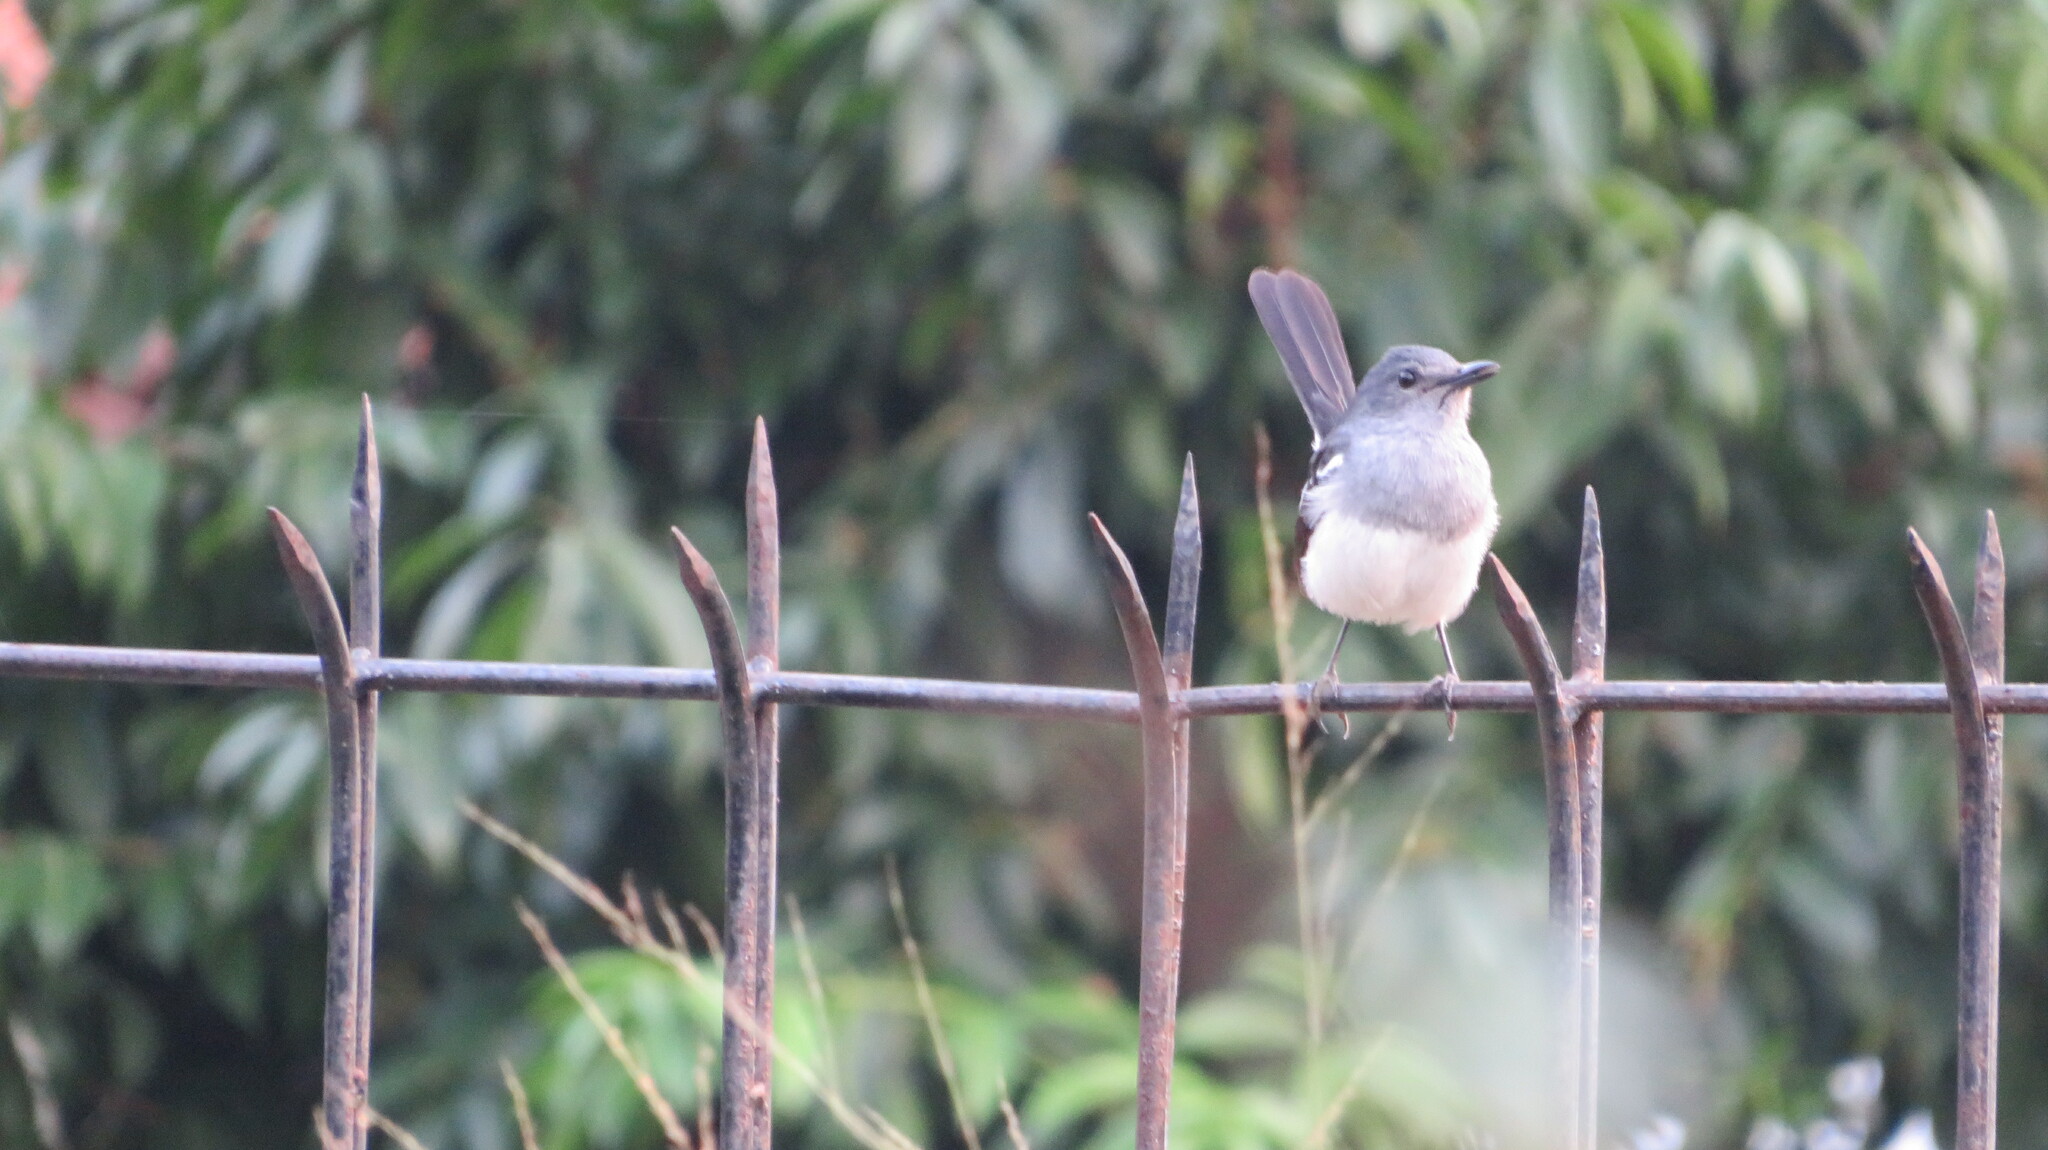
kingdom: Animalia
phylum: Chordata
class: Aves
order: Passeriformes
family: Muscicapidae
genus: Copsychus
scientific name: Copsychus saularis
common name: Oriental magpie-robin
